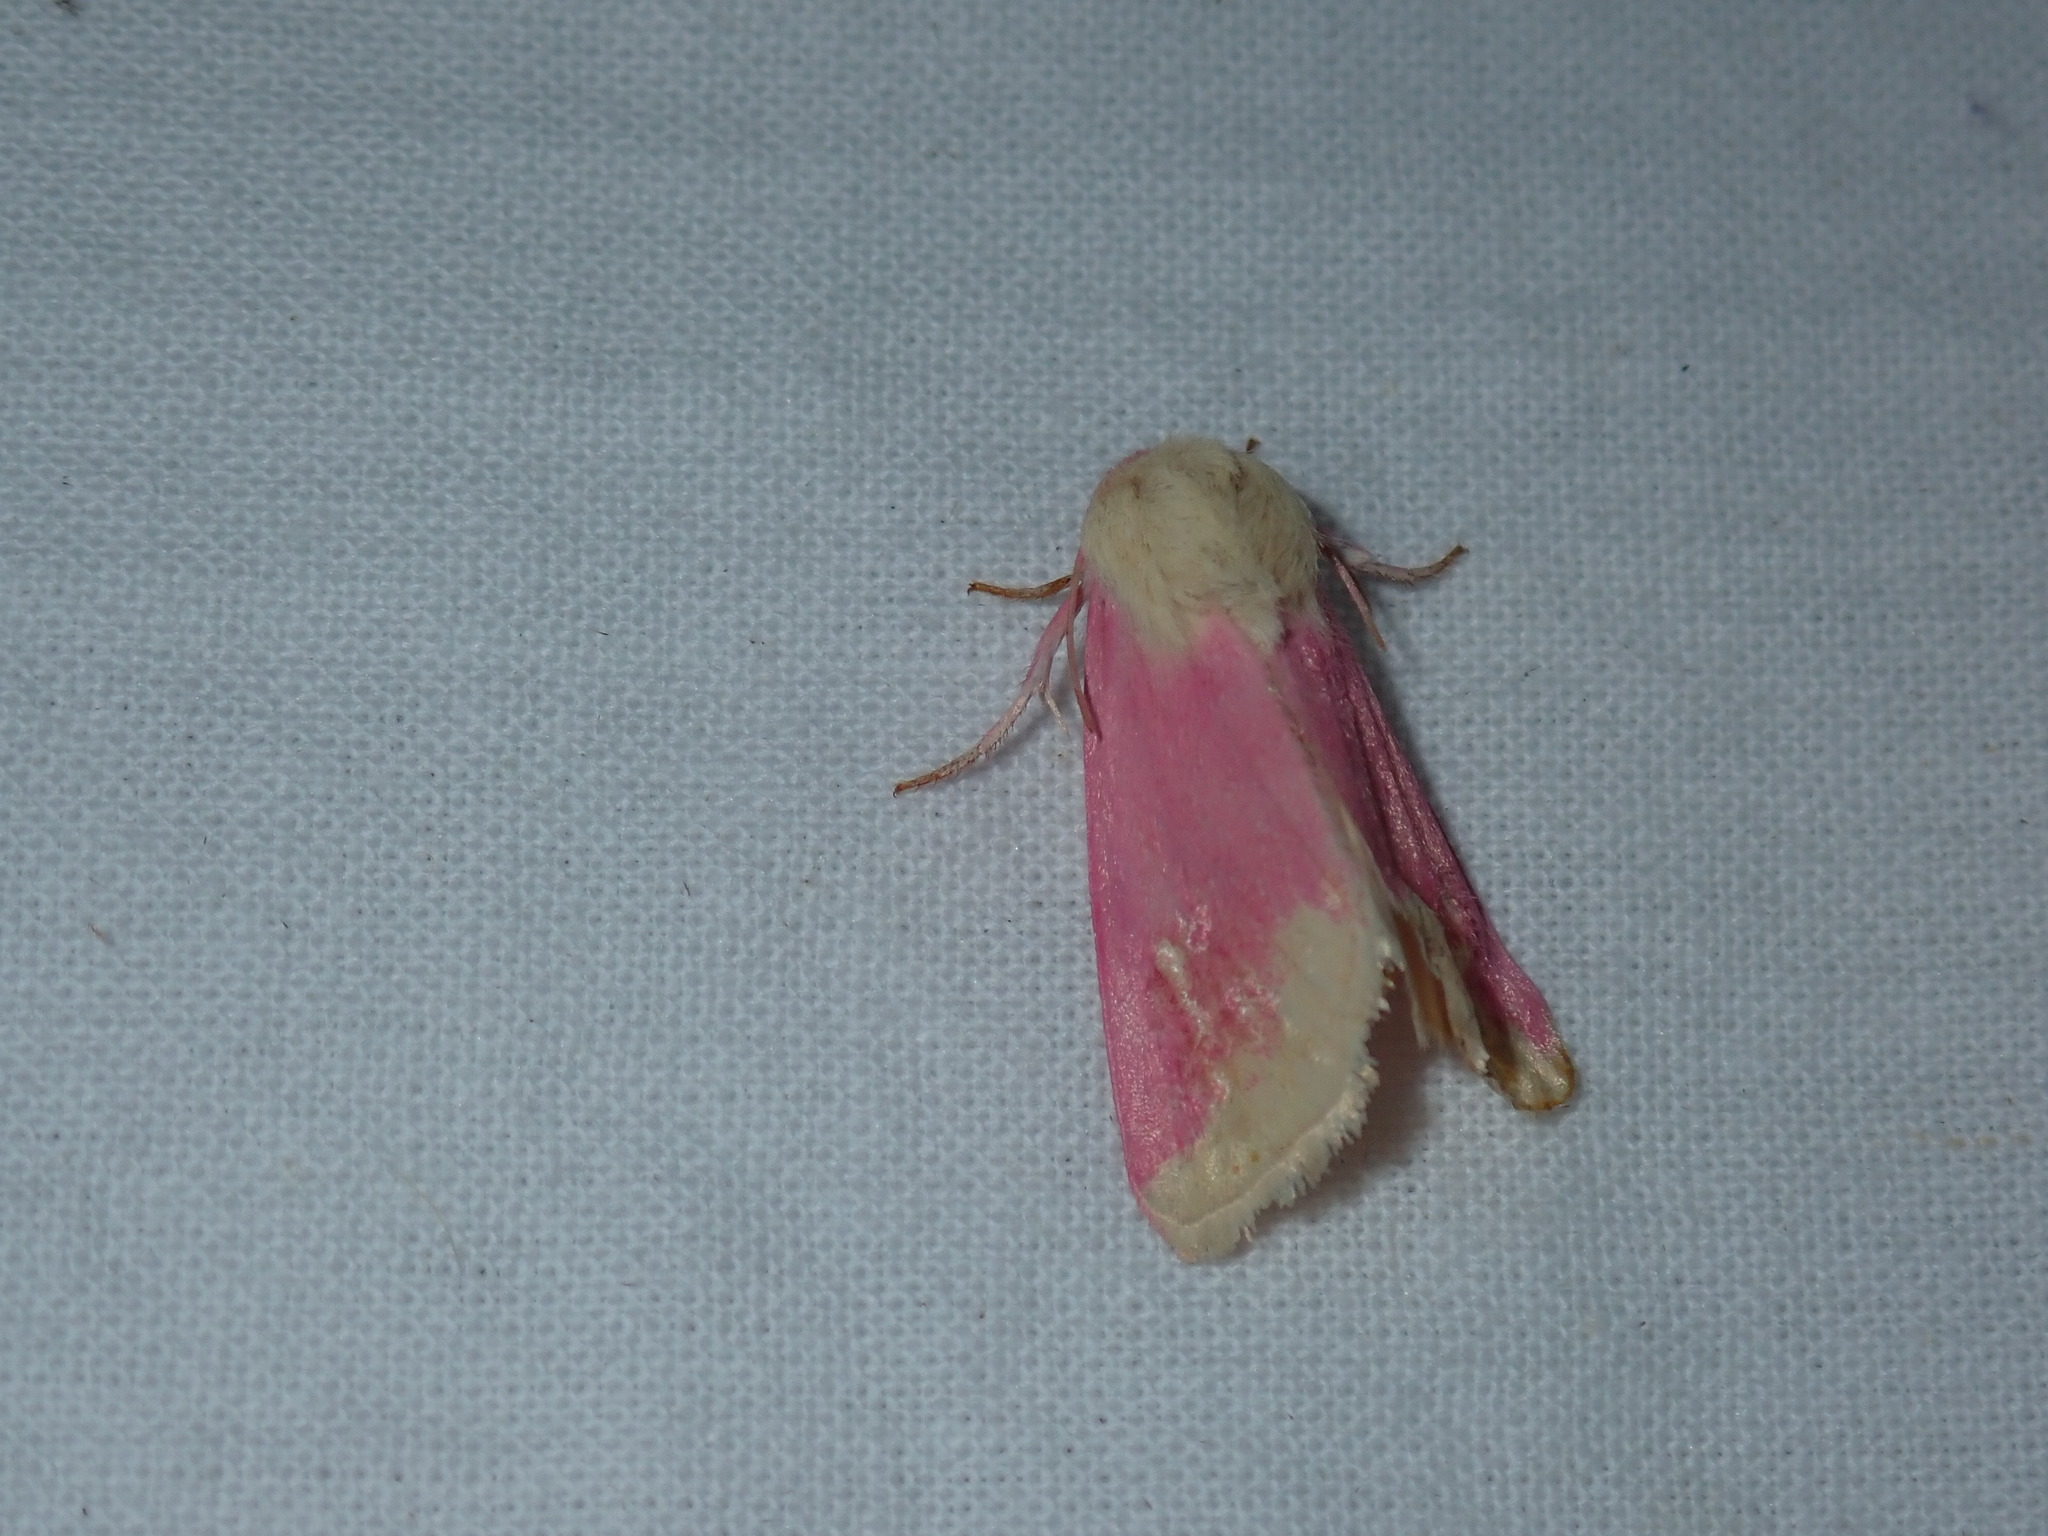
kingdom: Animalia
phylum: Arthropoda
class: Insecta
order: Lepidoptera
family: Noctuidae
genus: Schinia
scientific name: Schinia florida
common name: Primrose moth
